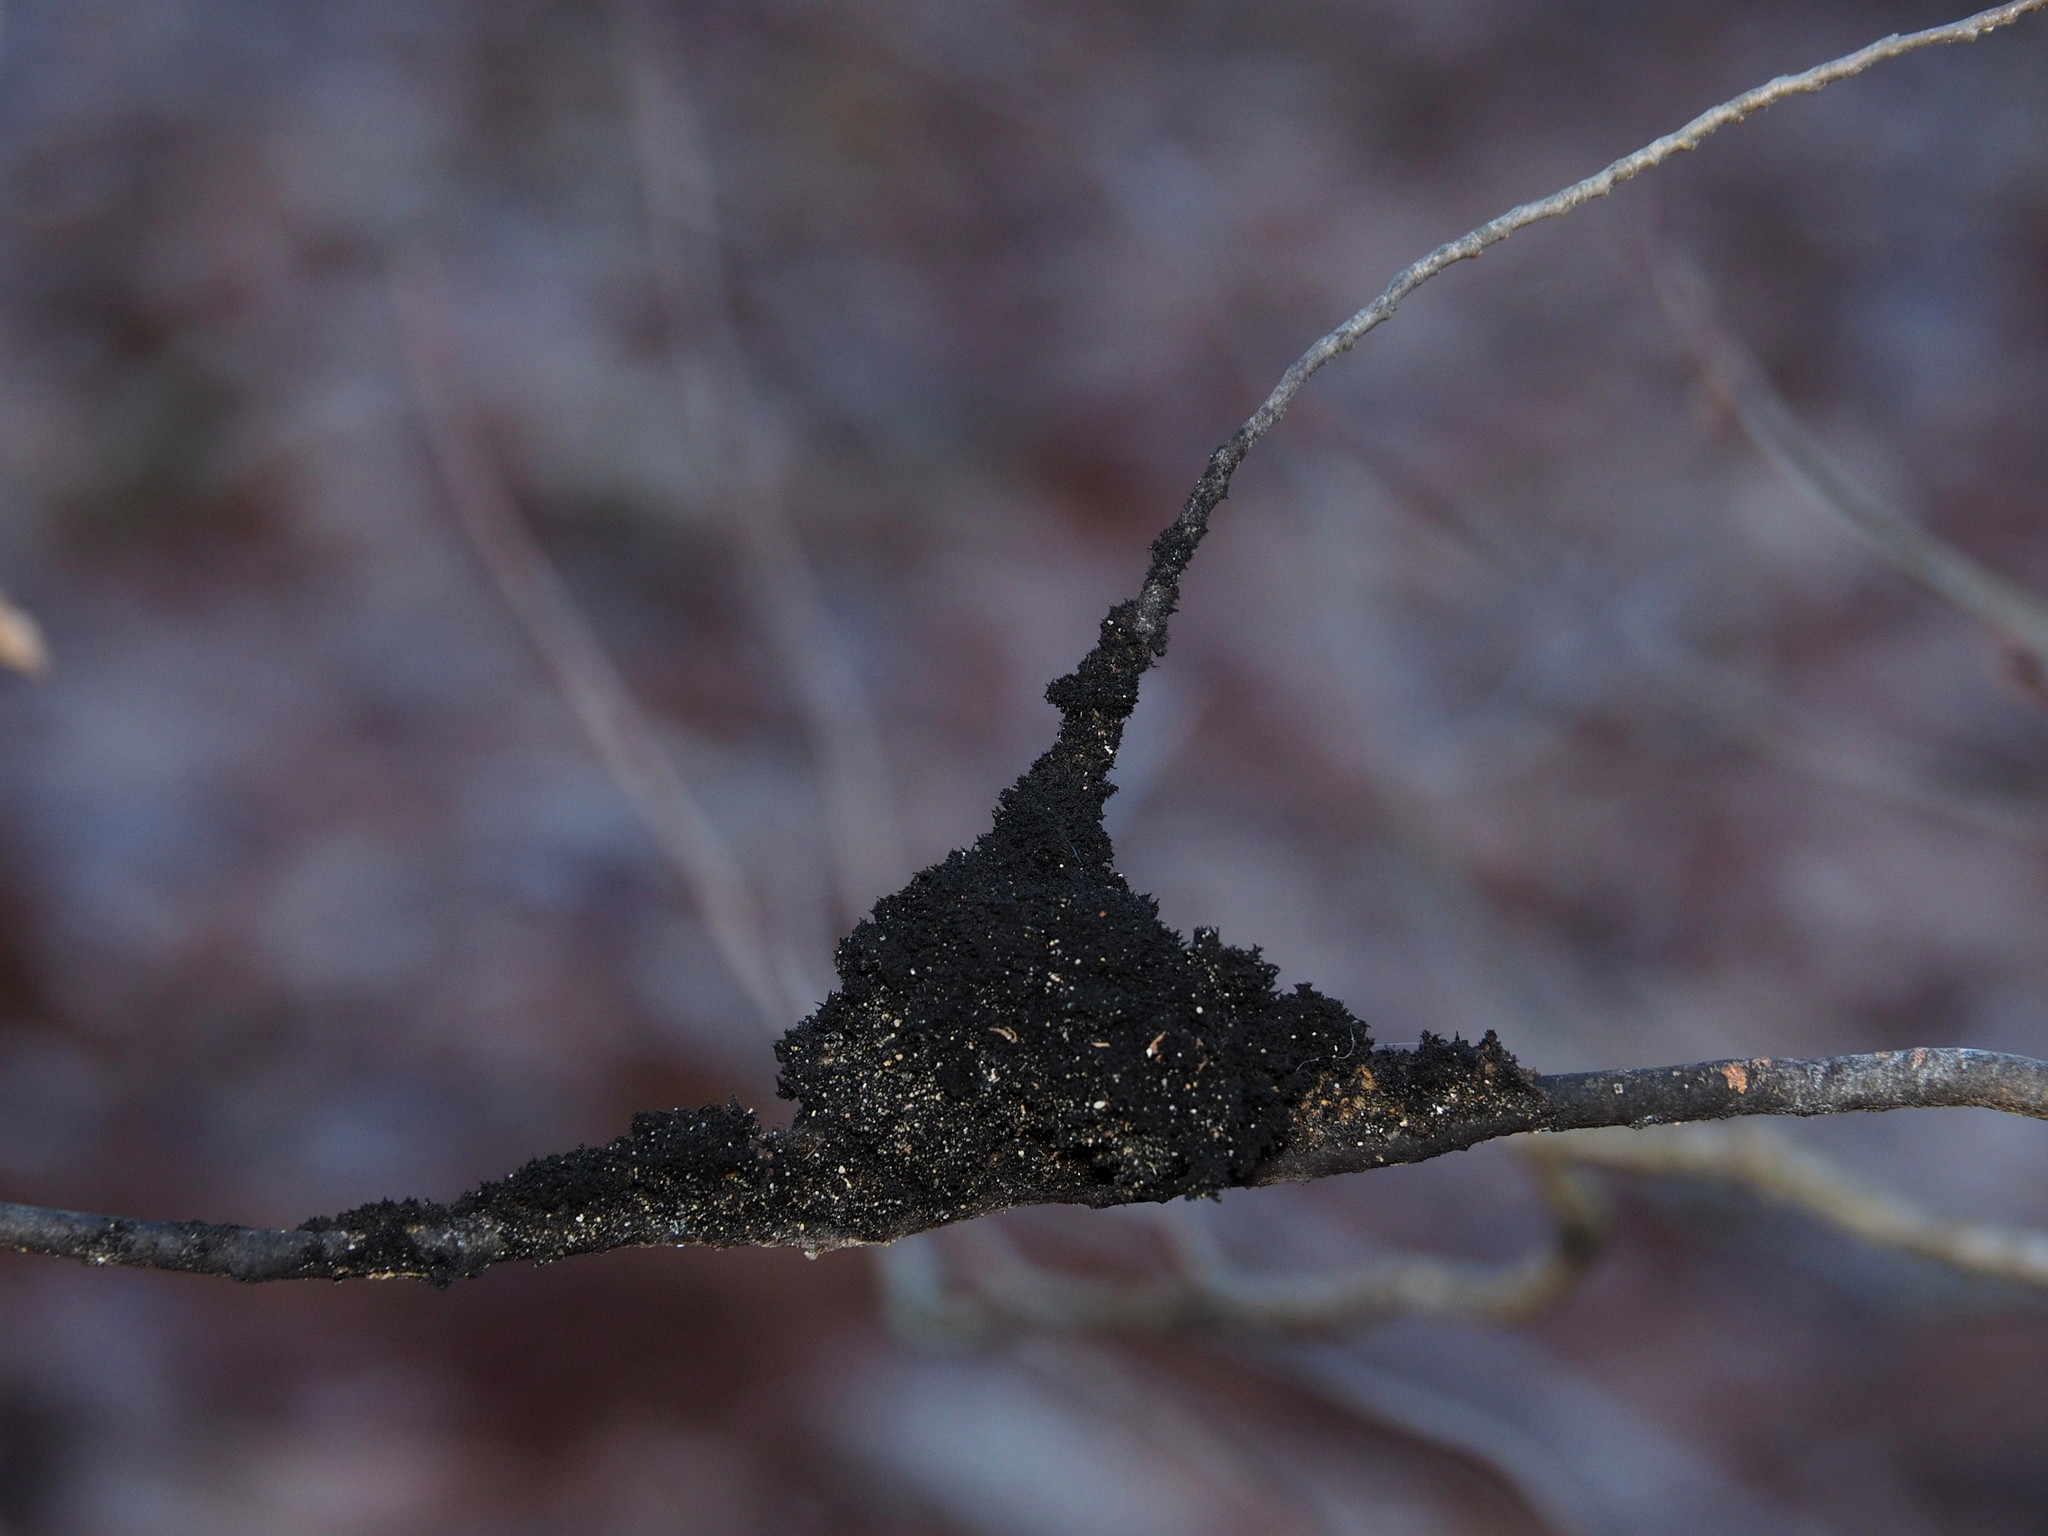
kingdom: Fungi
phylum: Ascomycota
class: Dothideomycetes
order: Capnodiales
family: Capnodiaceae
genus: Scorias
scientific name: Scorias spongiosa
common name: Black sooty mold
